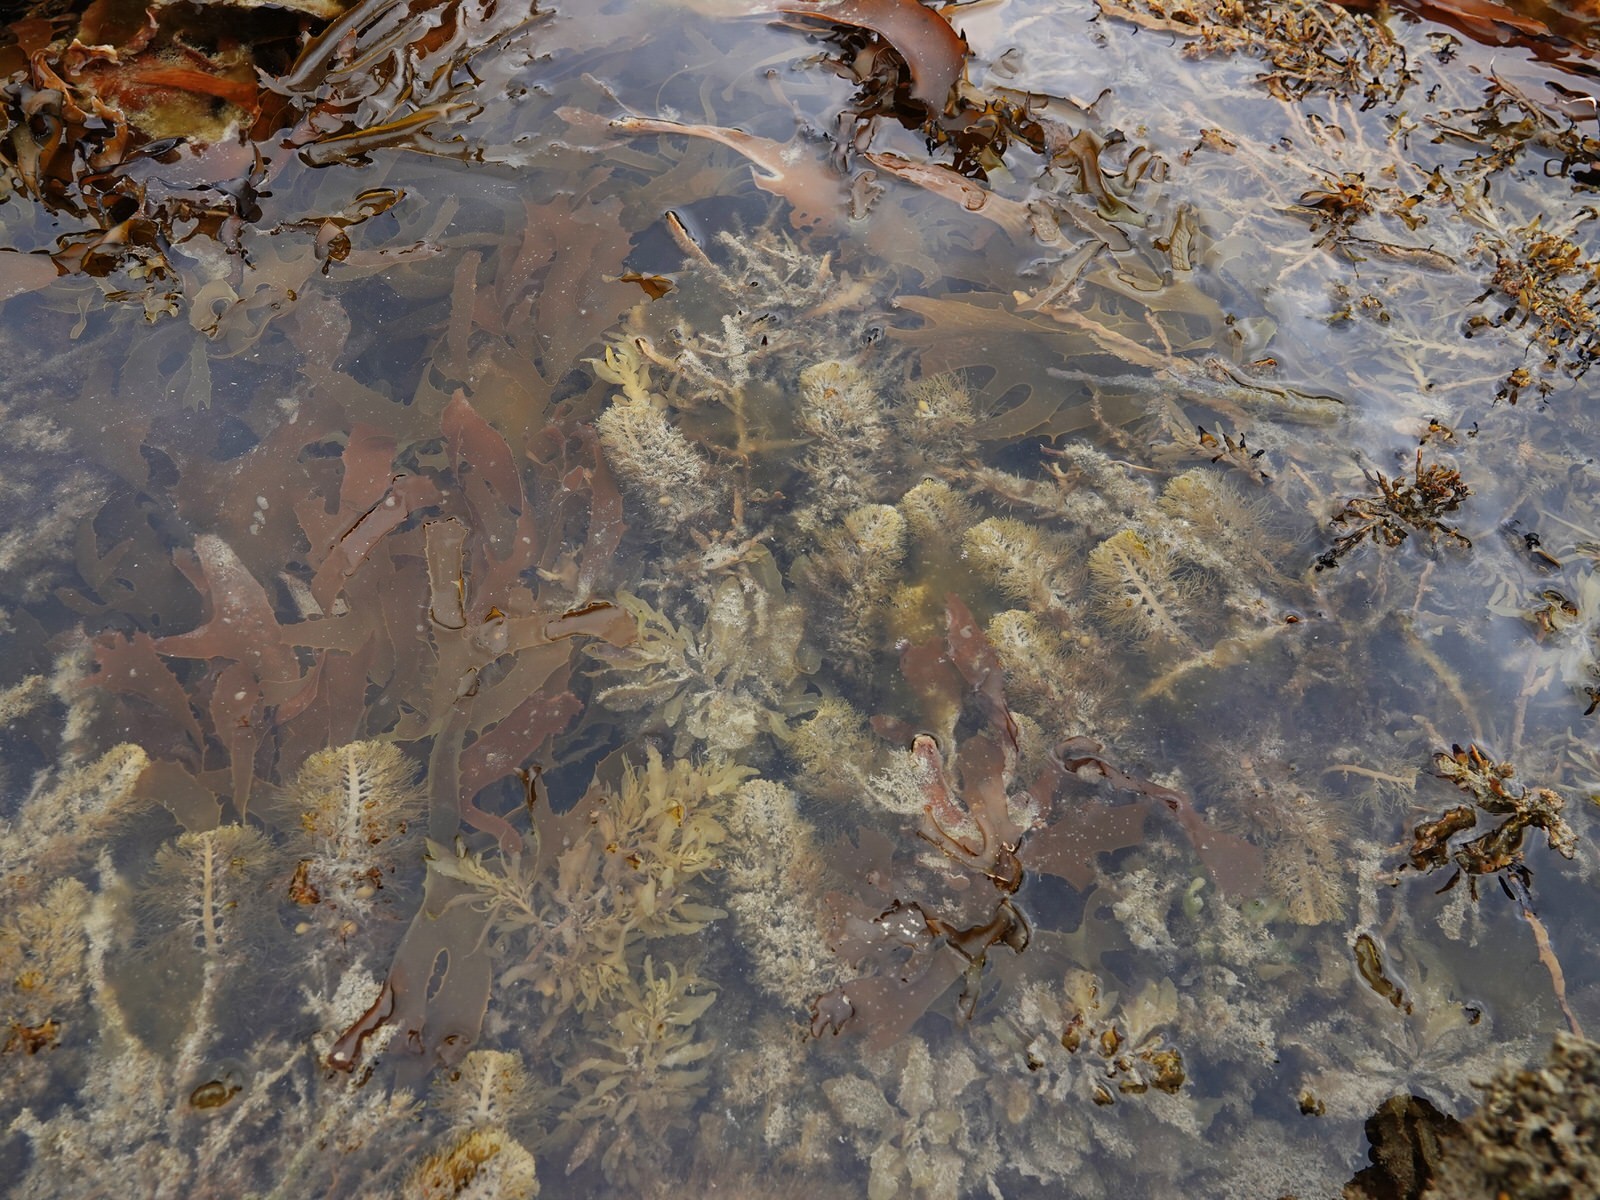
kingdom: Chromista
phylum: Ochrophyta
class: Phaeophyceae
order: Fucales
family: Sargassaceae
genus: Carpophyllum
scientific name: Carpophyllum plumosum
